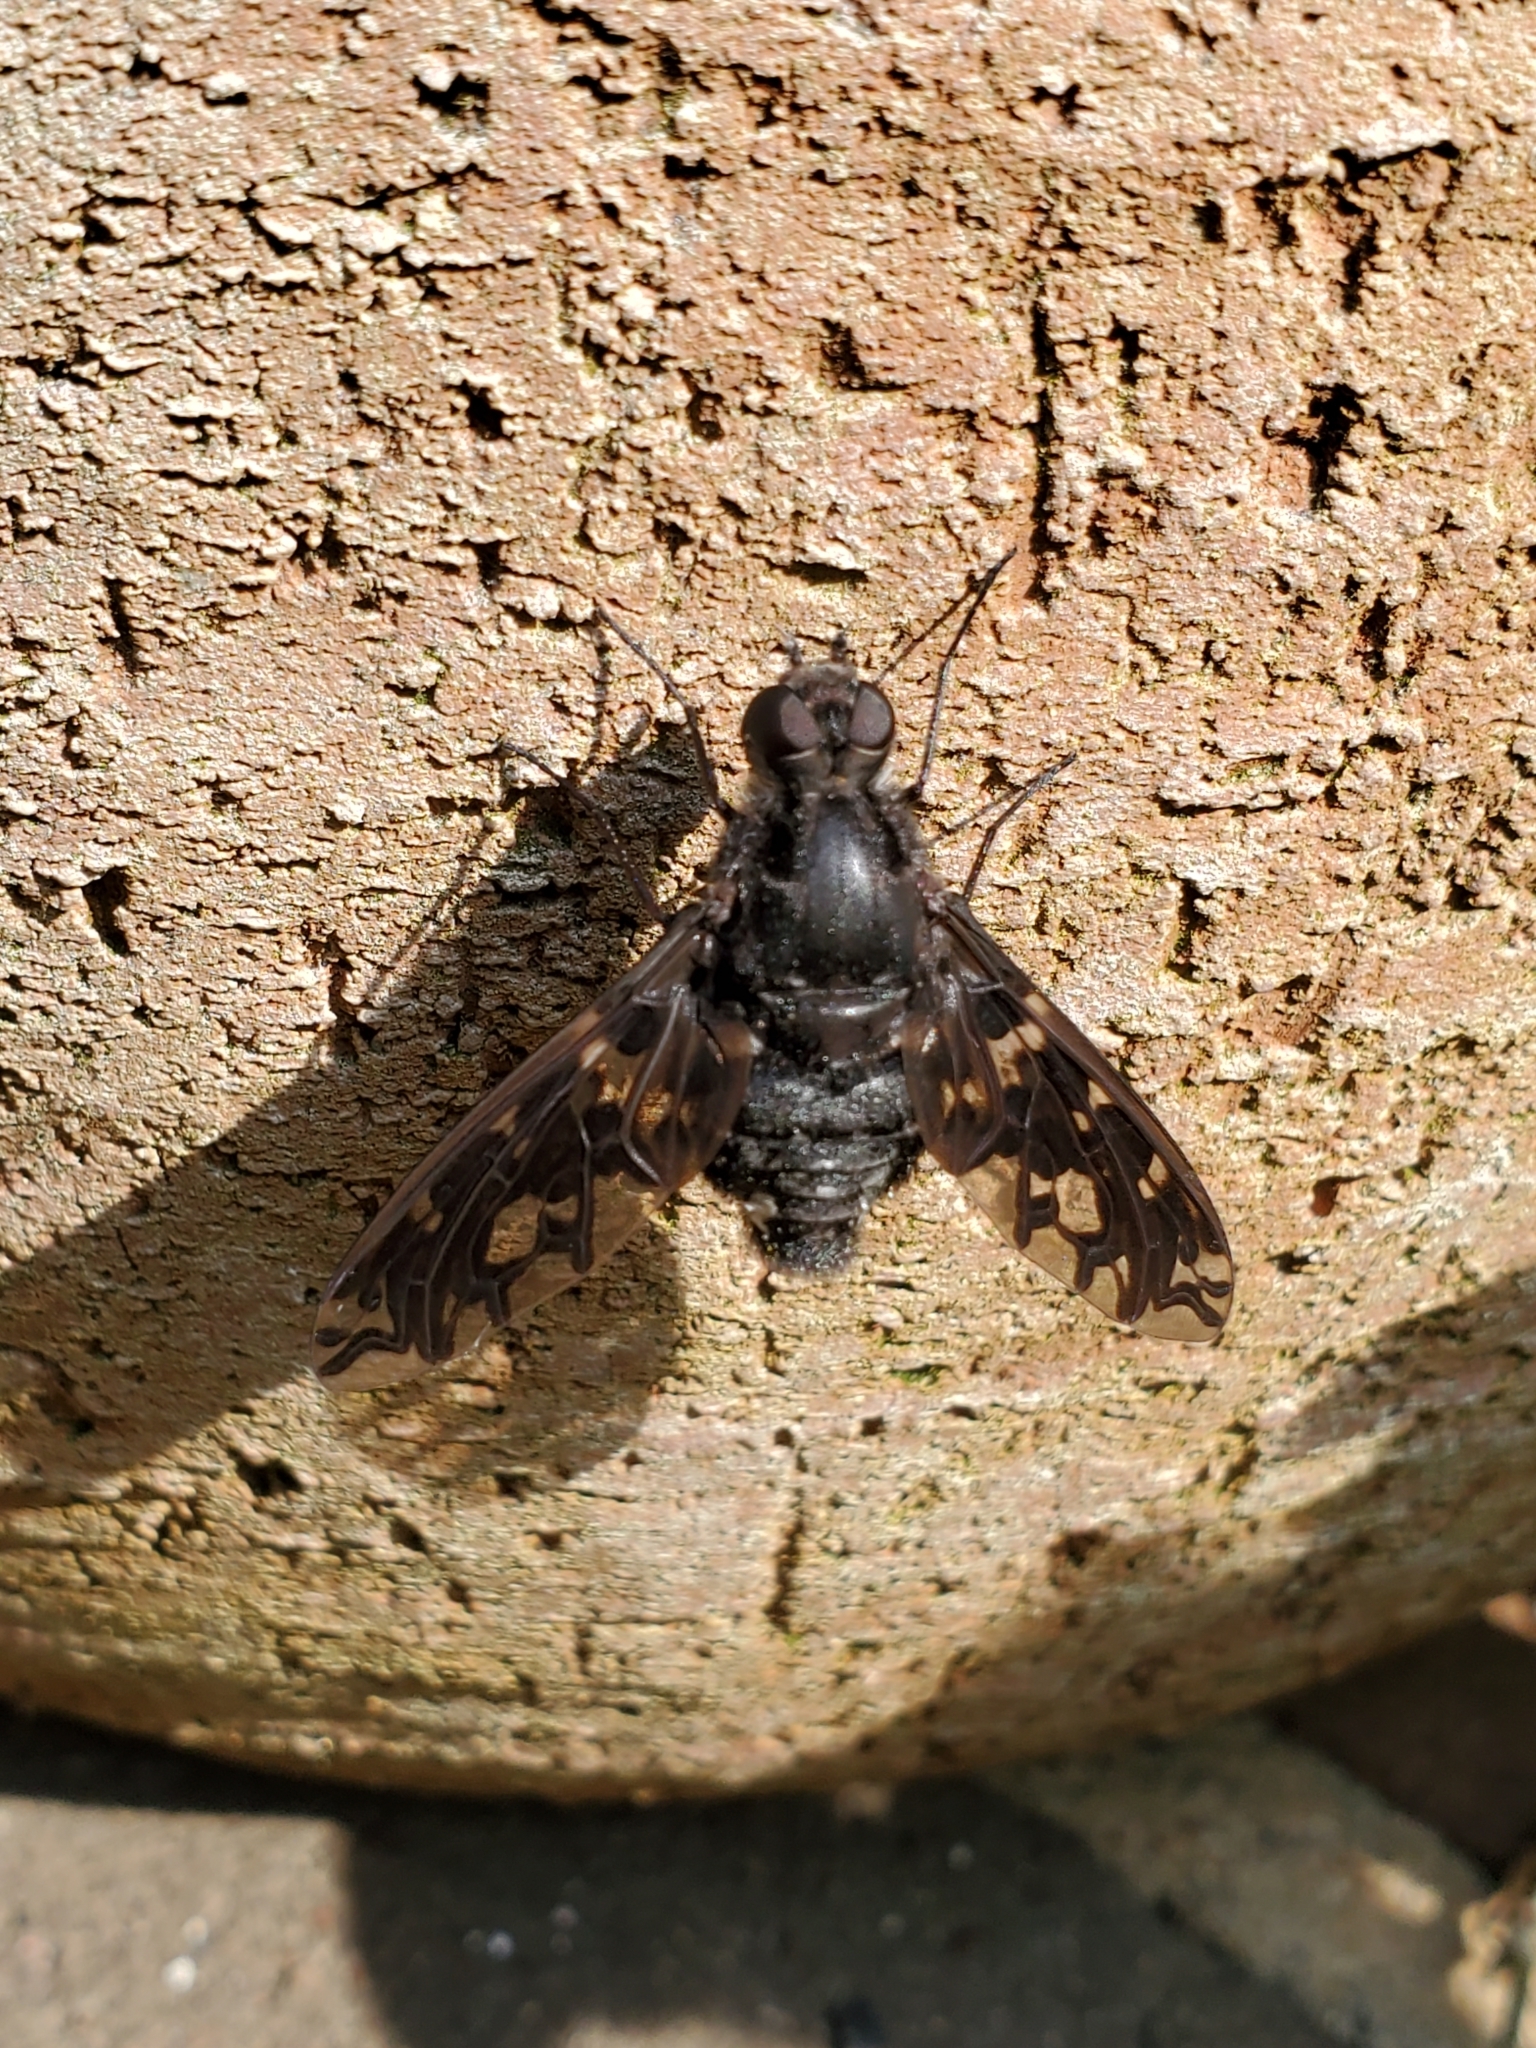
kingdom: Animalia
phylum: Arthropoda
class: Insecta
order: Diptera
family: Bombyliidae
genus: Xenox
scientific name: Xenox tigrinus
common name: Tiger bee fly
